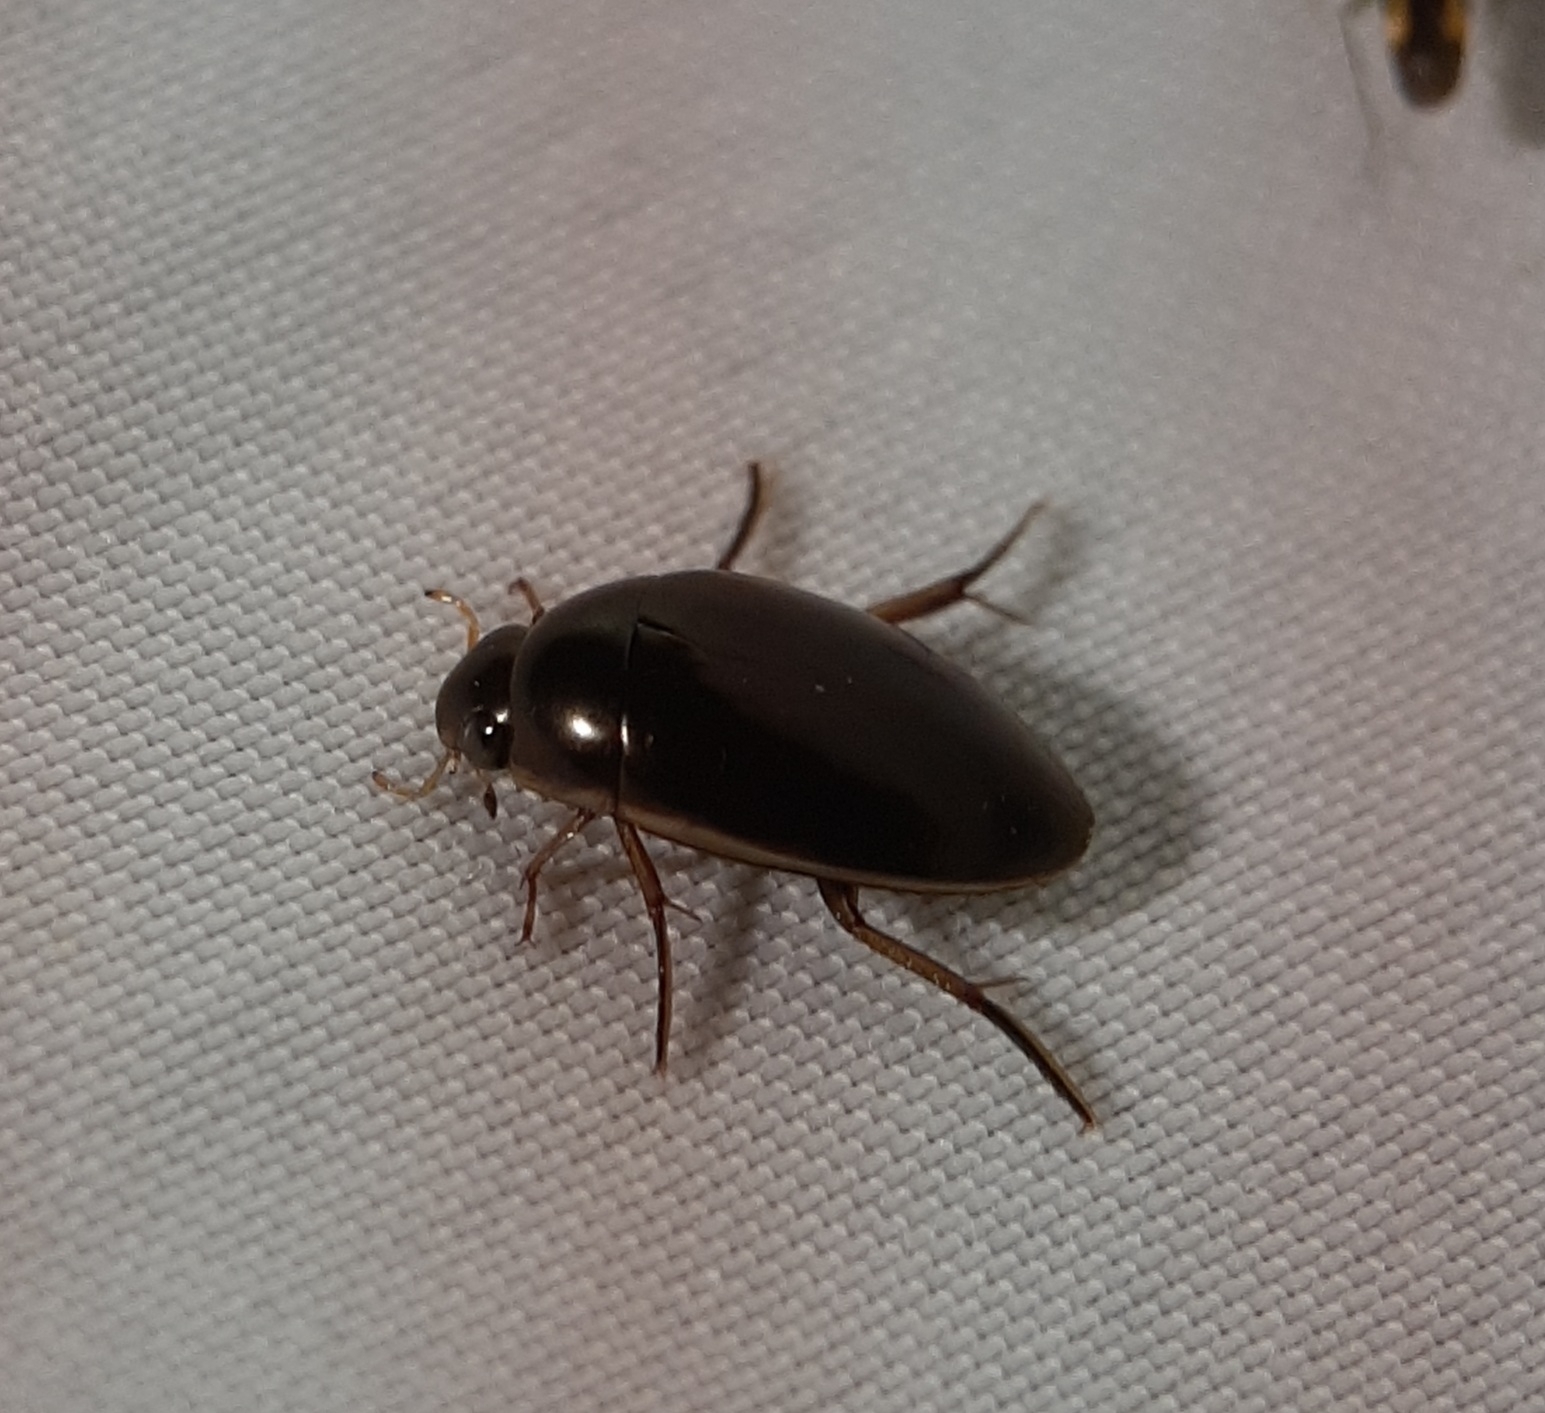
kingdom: Animalia
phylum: Arthropoda
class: Insecta
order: Coleoptera
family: Hydrophilidae
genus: Tropisternus
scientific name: Tropisternus lateralis
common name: Lateral-banded water scavenger beetle
